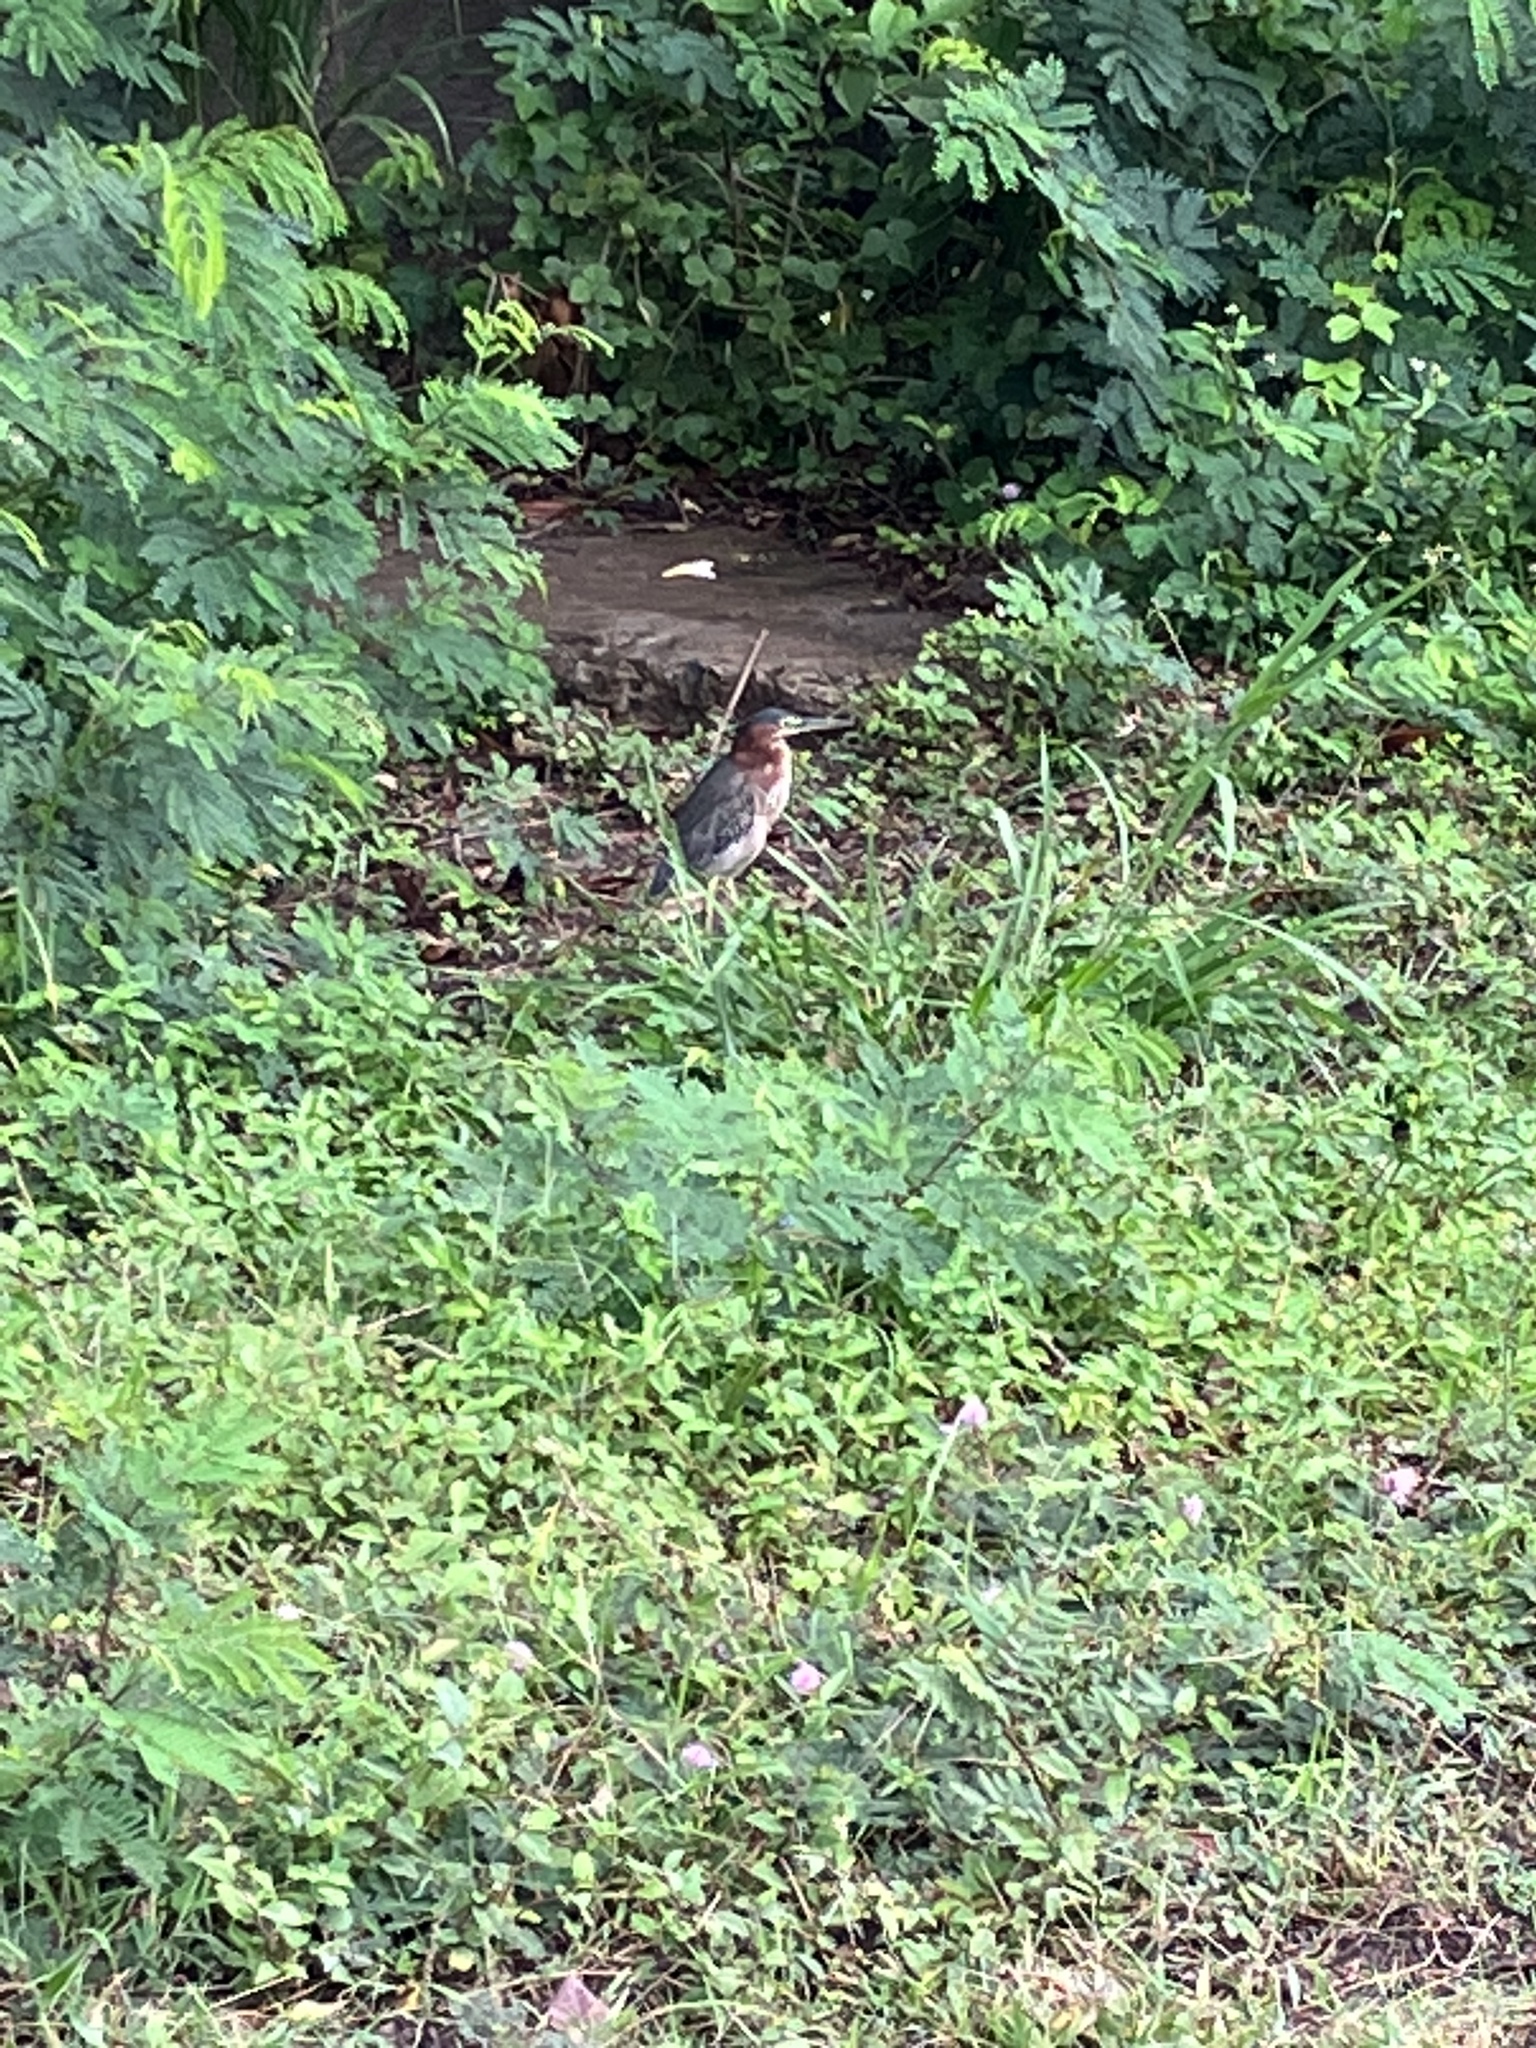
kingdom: Animalia
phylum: Chordata
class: Aves
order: Pelecaniformes
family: Ardeidae
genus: Butorides
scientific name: Butorides virescens
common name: Green heron
